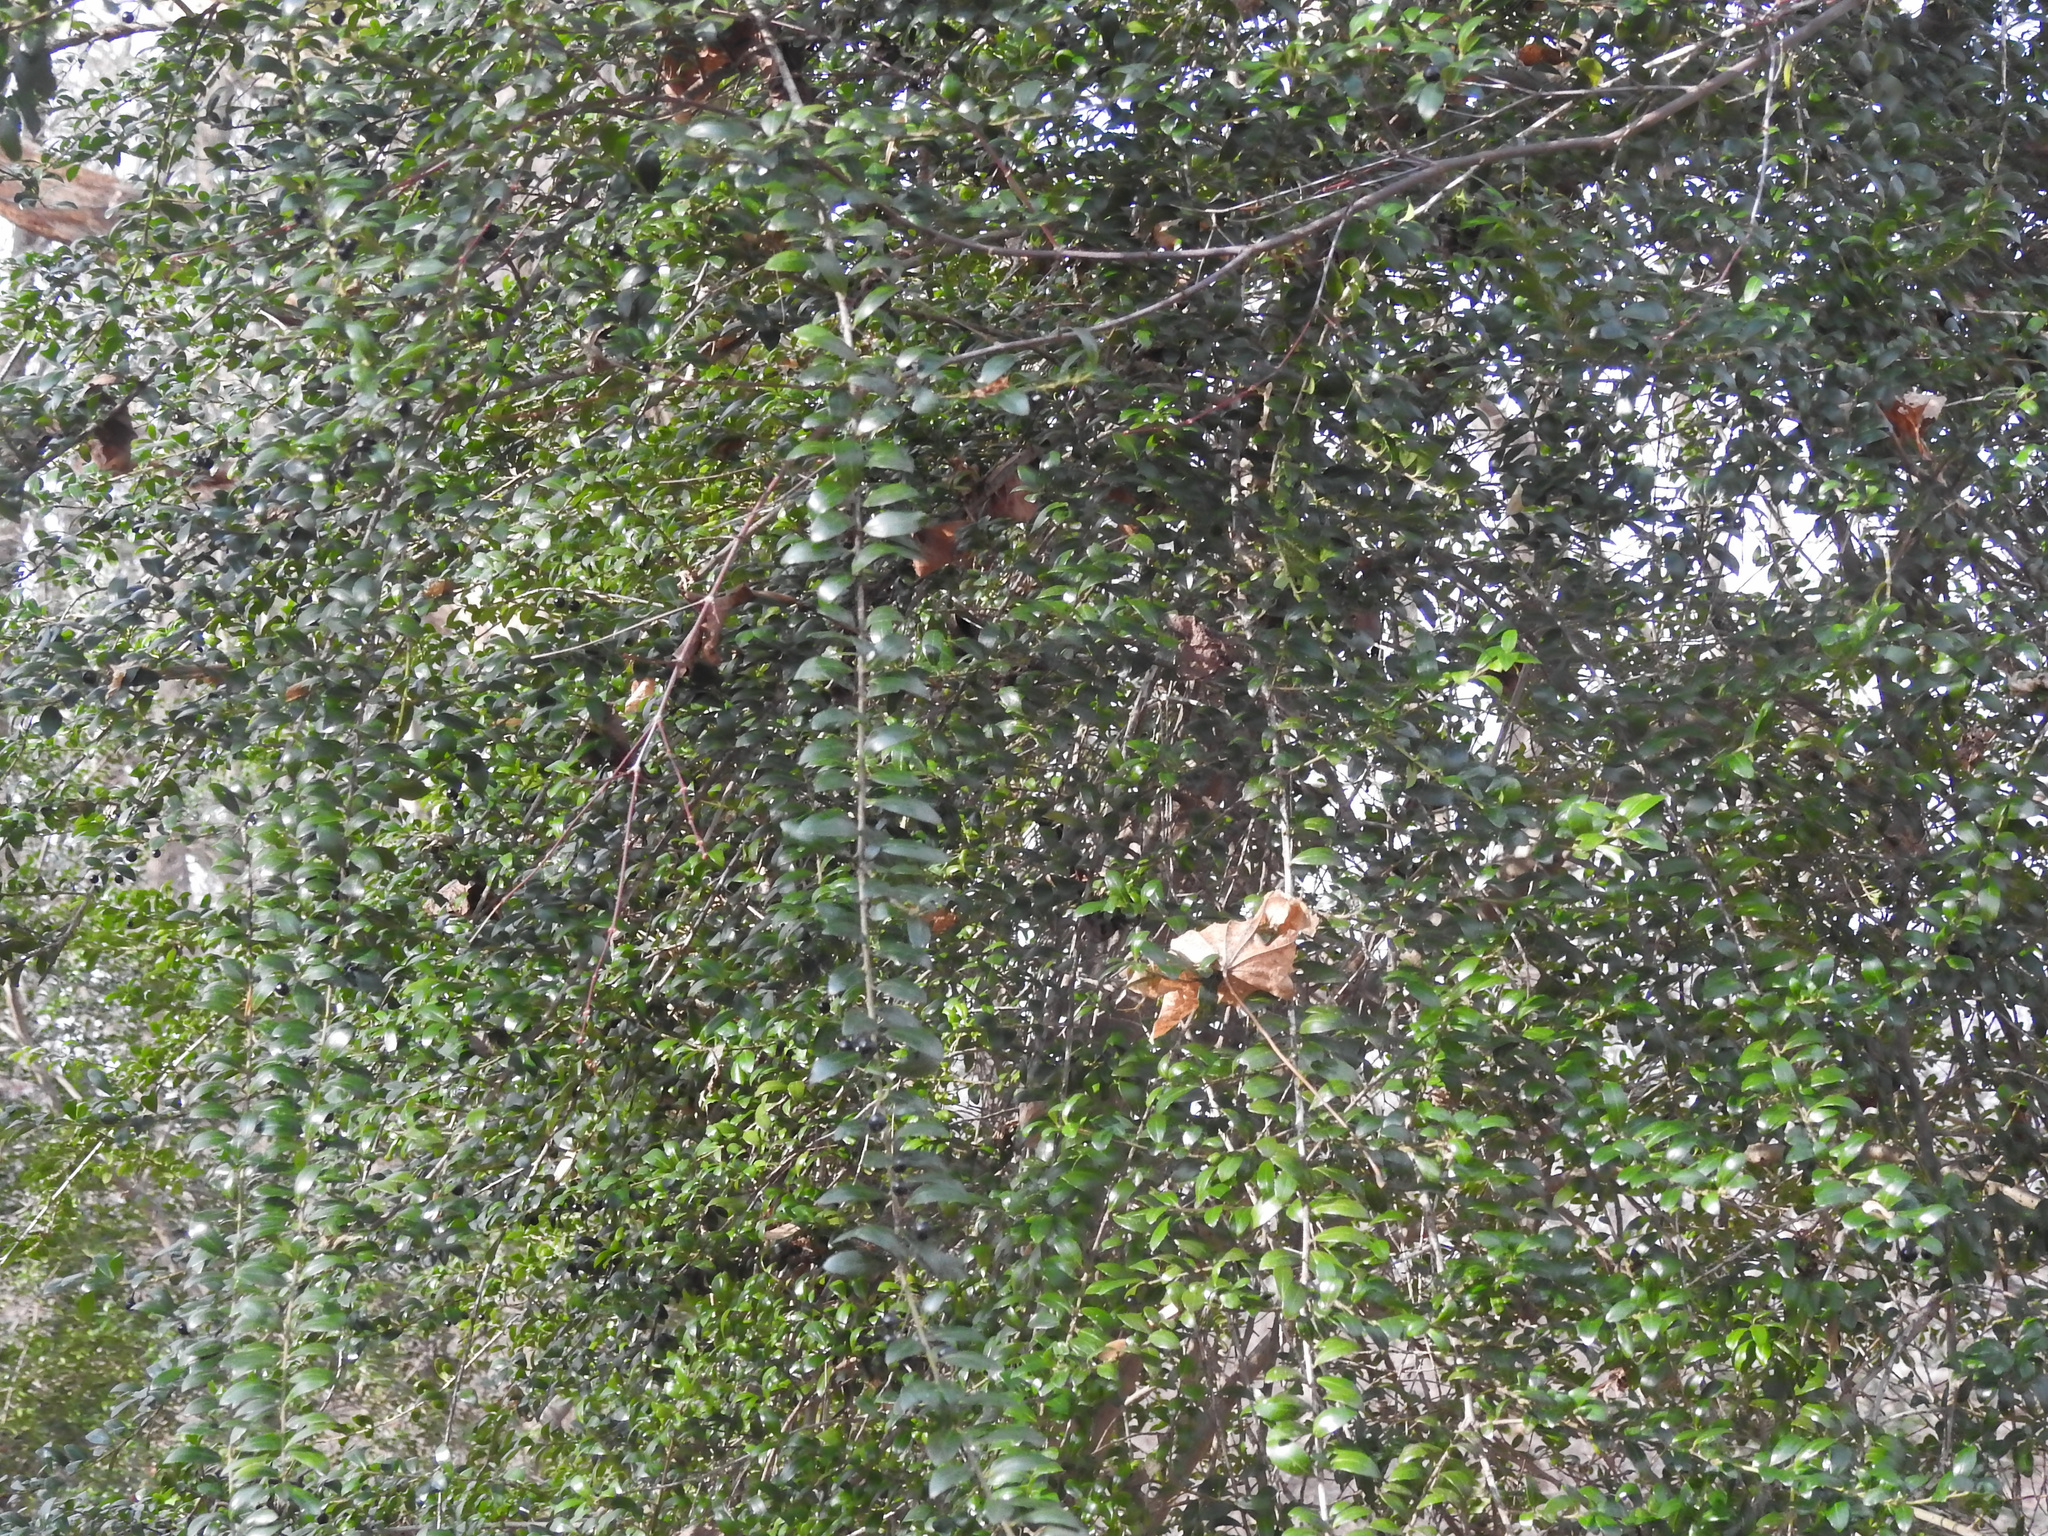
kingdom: Plantae
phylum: Tracheophyta
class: Magnoliopsida
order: Aquifoliales
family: Aquifoliaceae
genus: Ilex
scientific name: Ilex crenata
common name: Japanese holly
